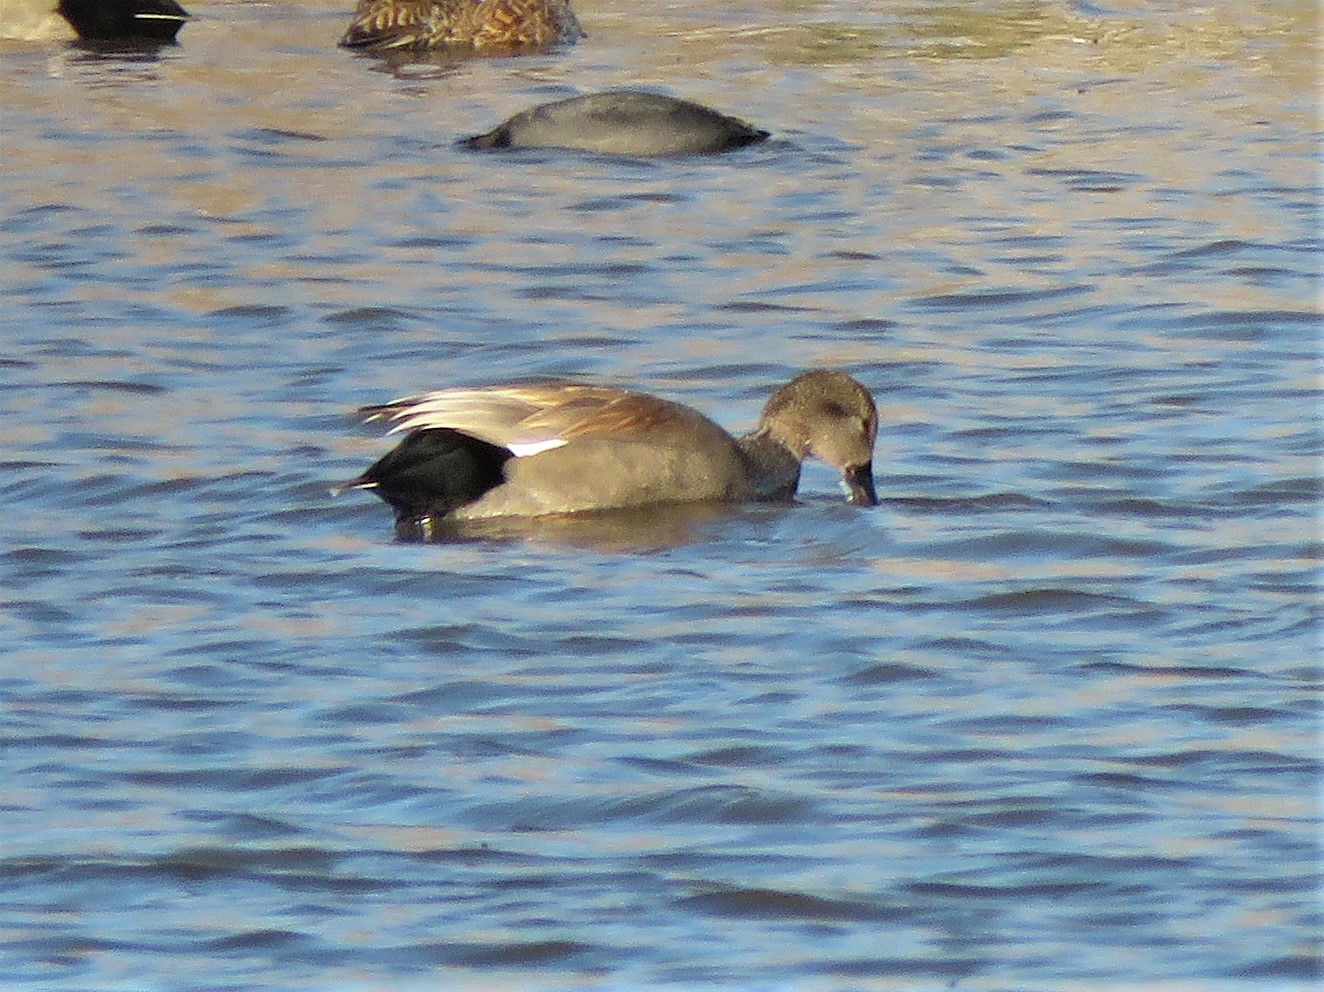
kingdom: Animalia
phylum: Chordata
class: Aves
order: Anseriformes
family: Anatidae
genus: Mareca
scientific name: Mareca strepera
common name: Gadwall
